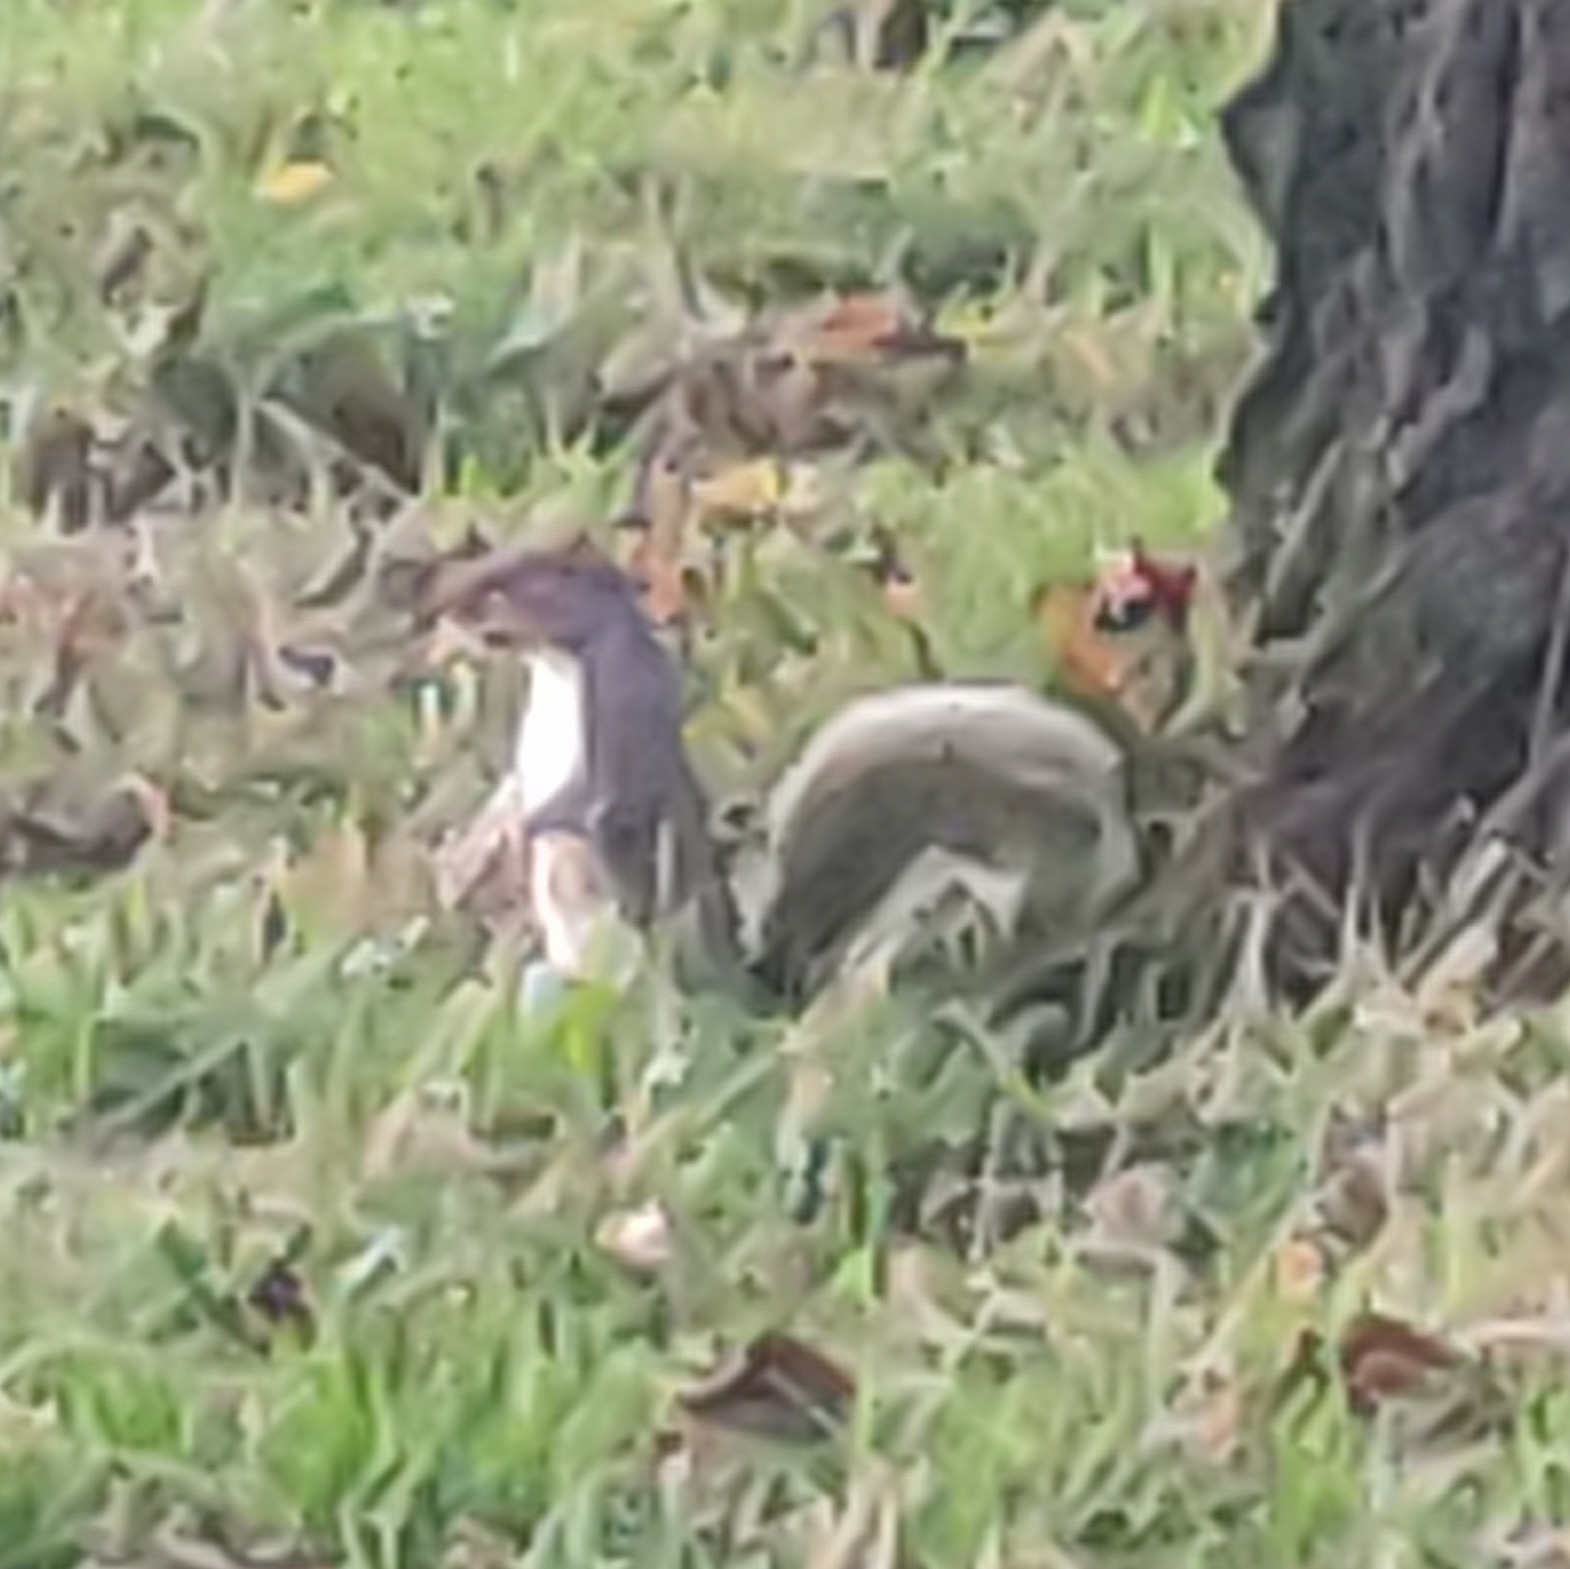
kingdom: Animalia
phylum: Chordata
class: Mammalia
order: Rodentia
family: Sciuridae
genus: Sciurus
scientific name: Sciurus carolinensis
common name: Eastern gray squirrel
